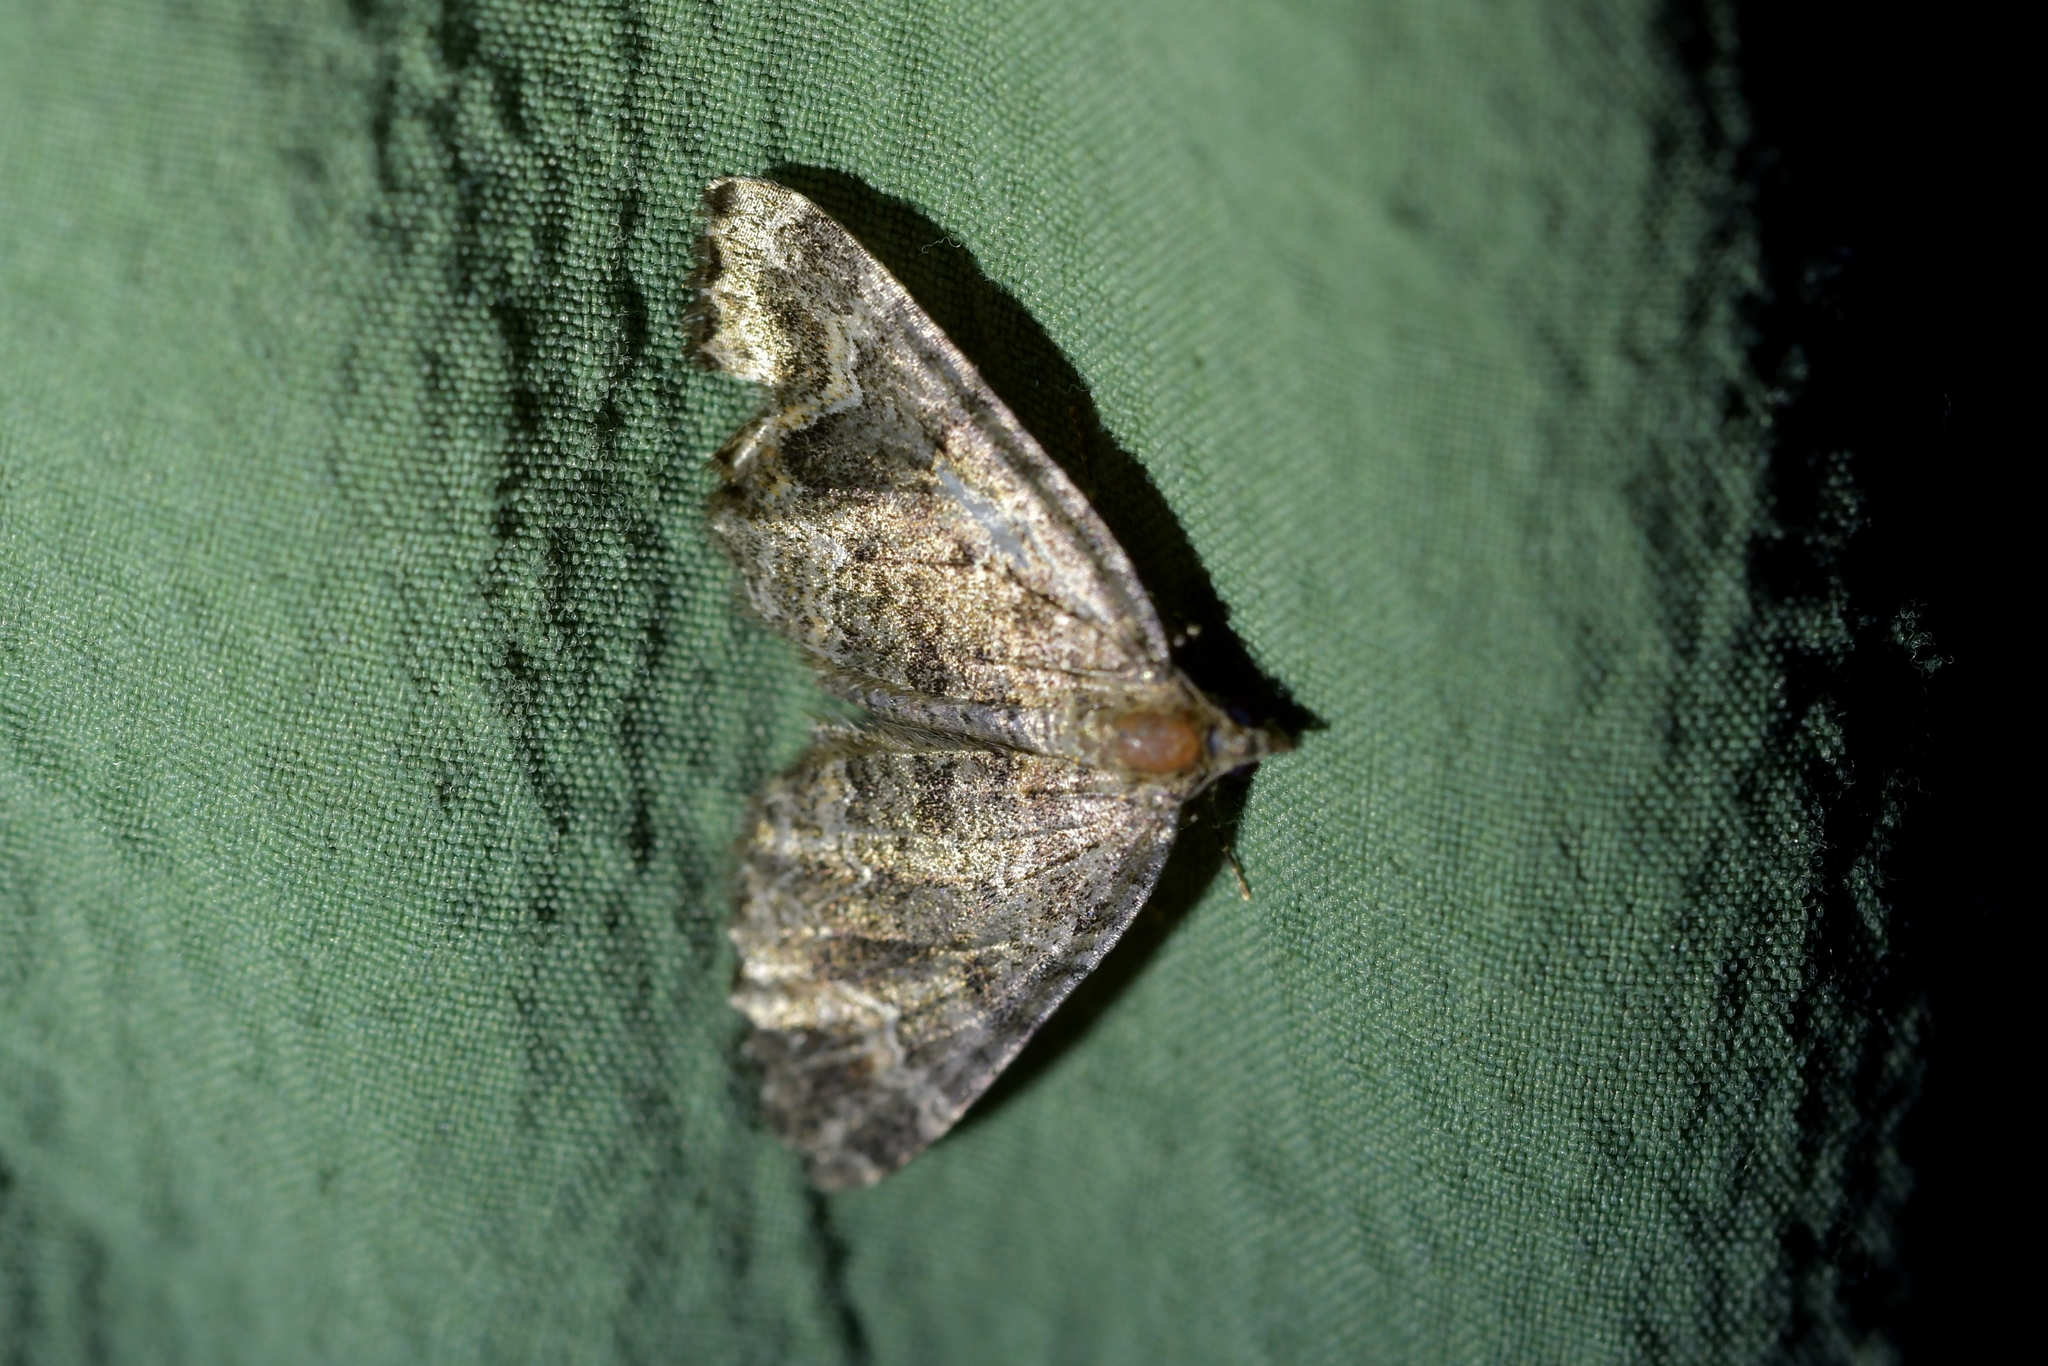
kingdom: Animalia
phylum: Arthropoda
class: Insecta
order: Lepidoptera
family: Geometridae
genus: Hydriomena
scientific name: Hydriomena hemizona
